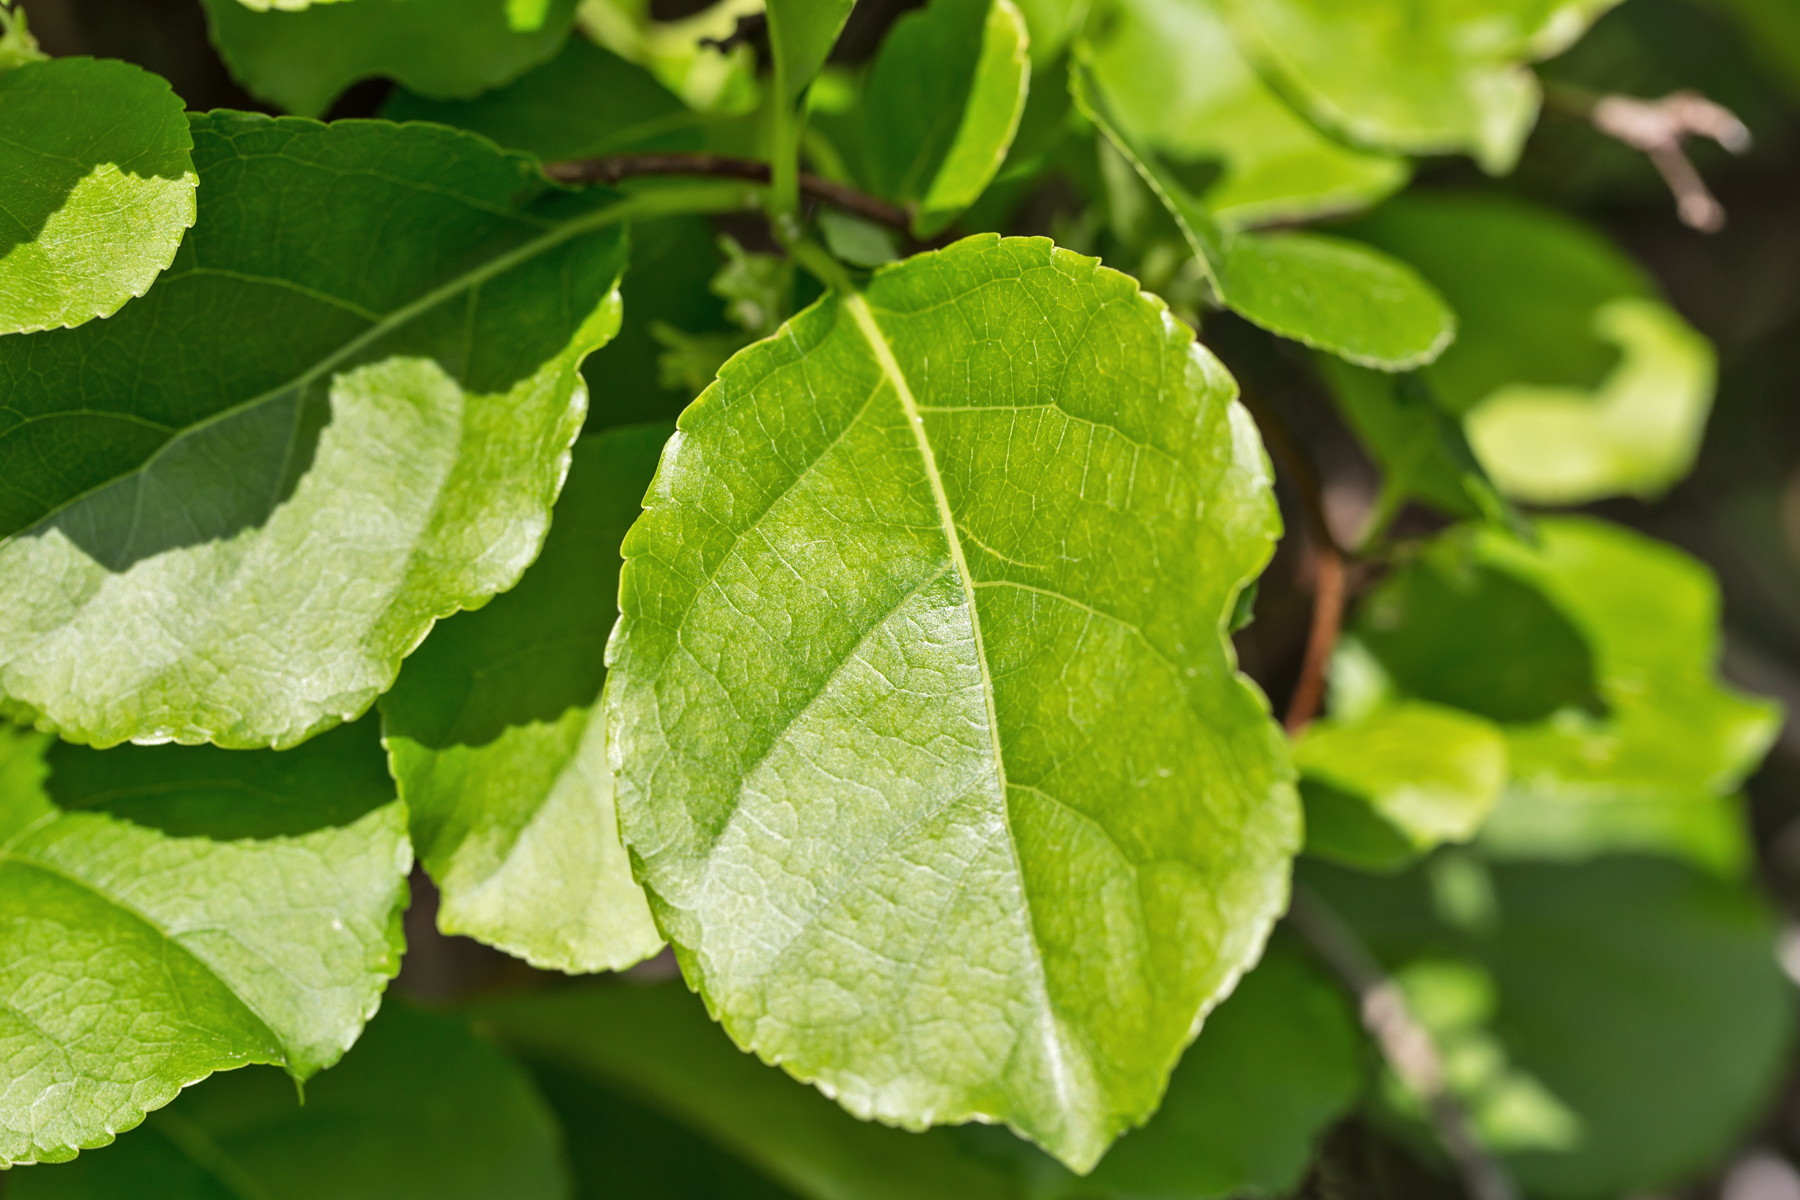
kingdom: Plantae
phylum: Tracheophyta
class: Magnoliopsida
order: Celastrales
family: Celastraceae
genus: Celastrus
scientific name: Celastrus orbiculatus
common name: Oriental bittersweet
